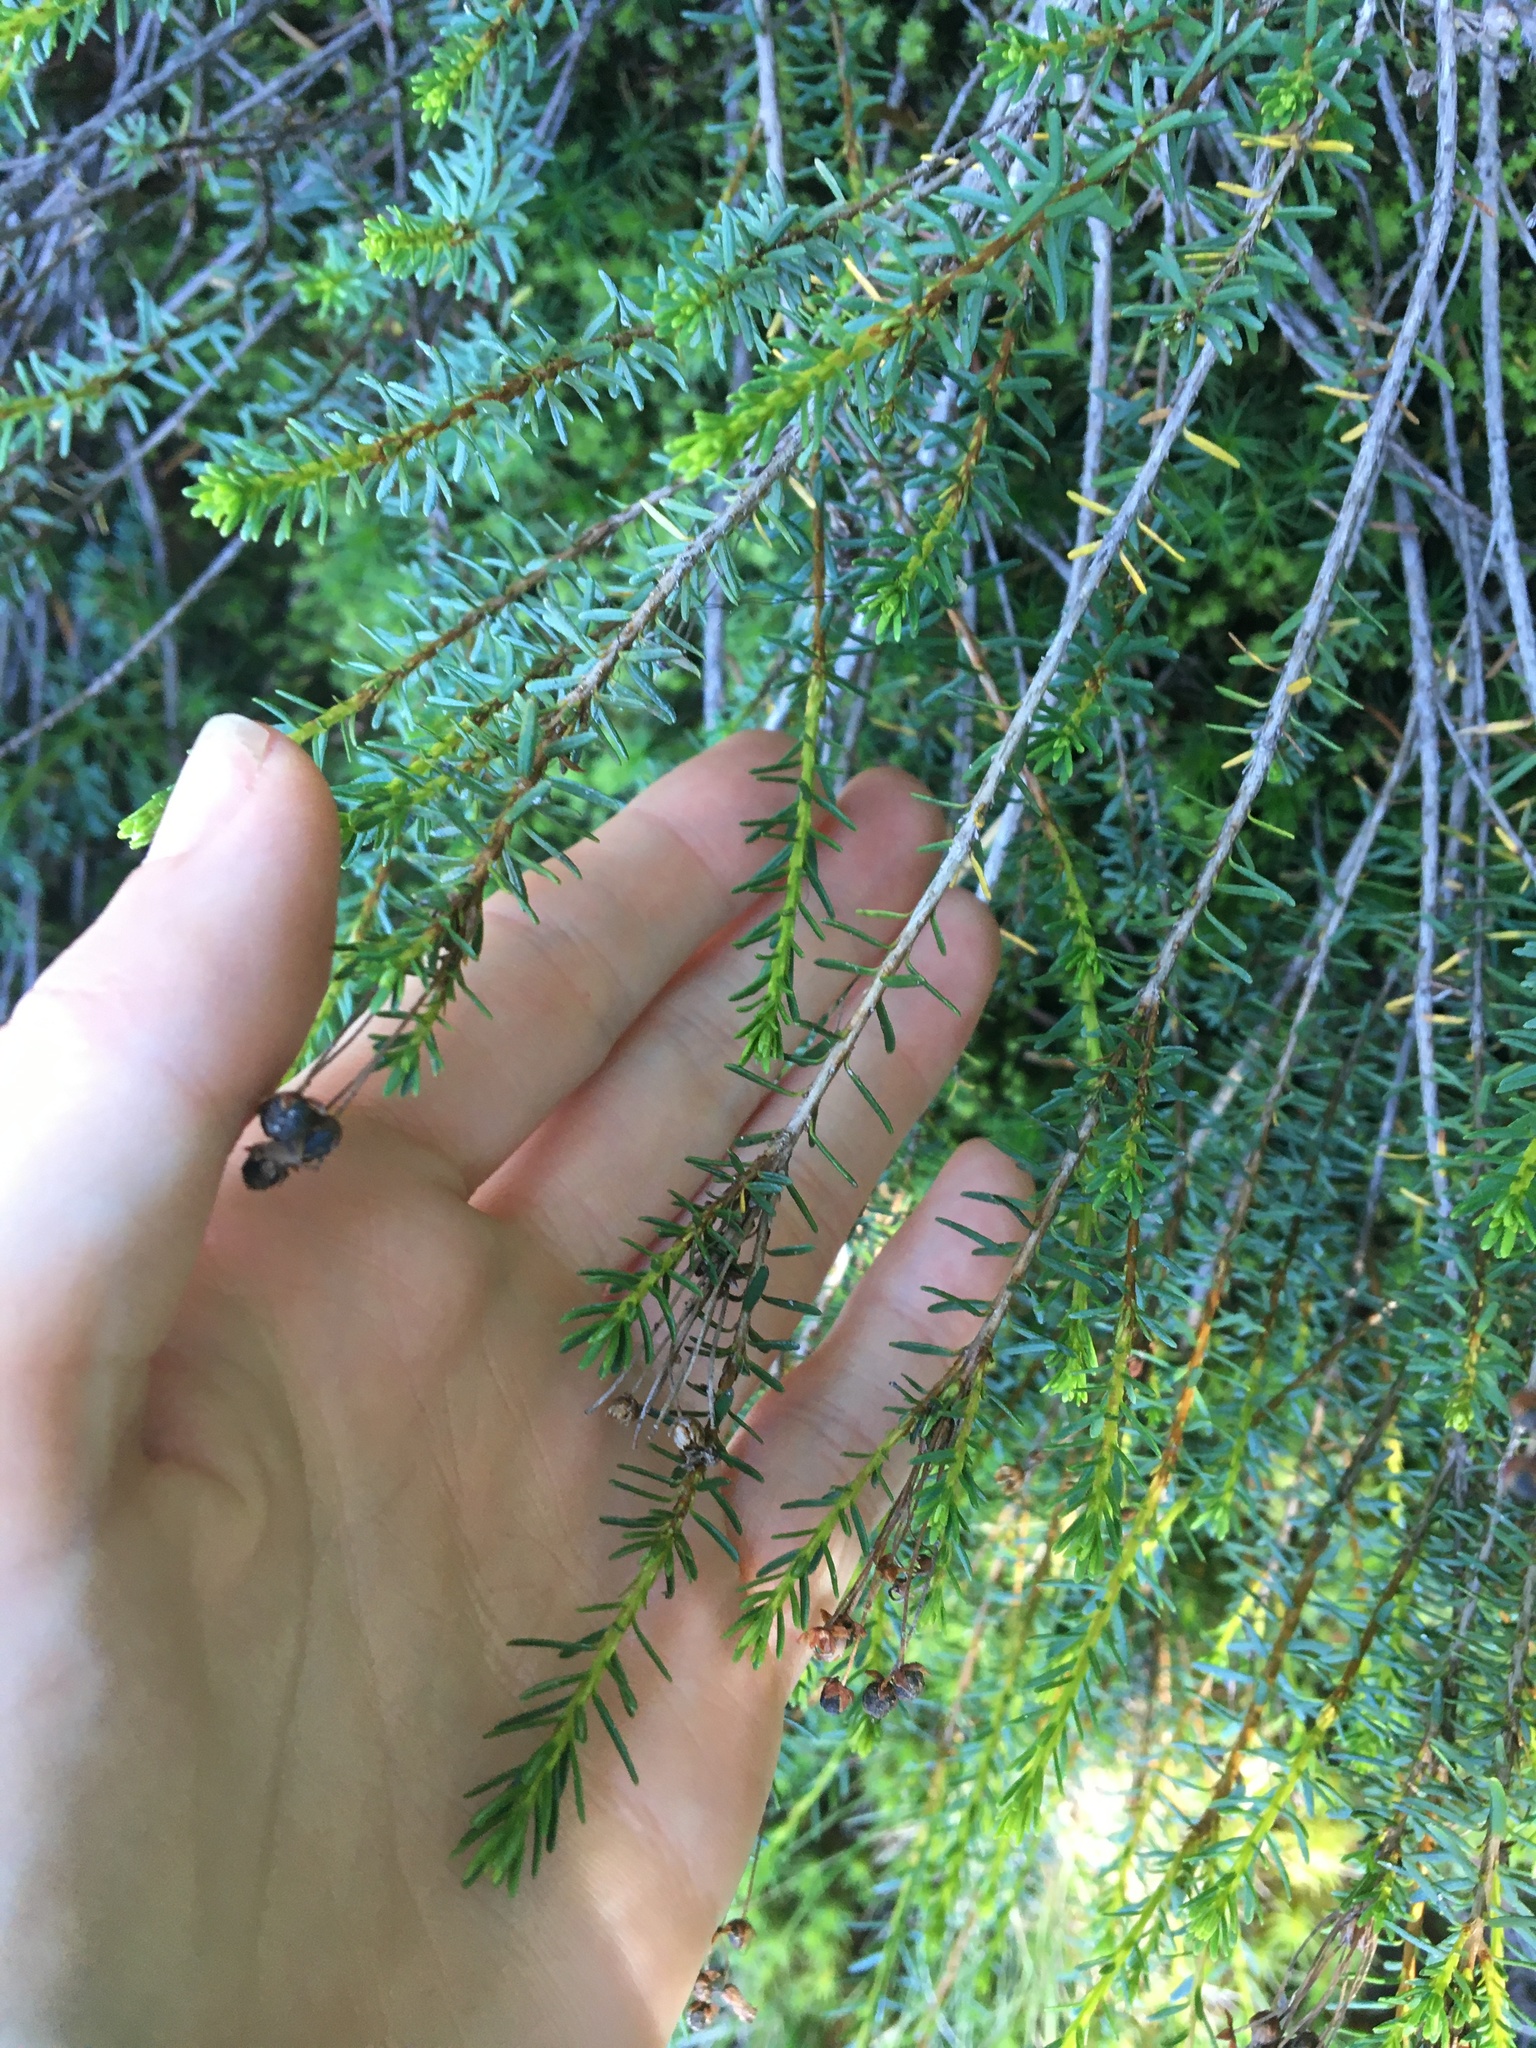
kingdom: Plantae
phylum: Tracheophyta
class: Magnoliopsida
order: Ericales
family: Ericaceae
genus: Phyllodoce
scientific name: Phyllodoce empetriformis
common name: Pink mountain heather
